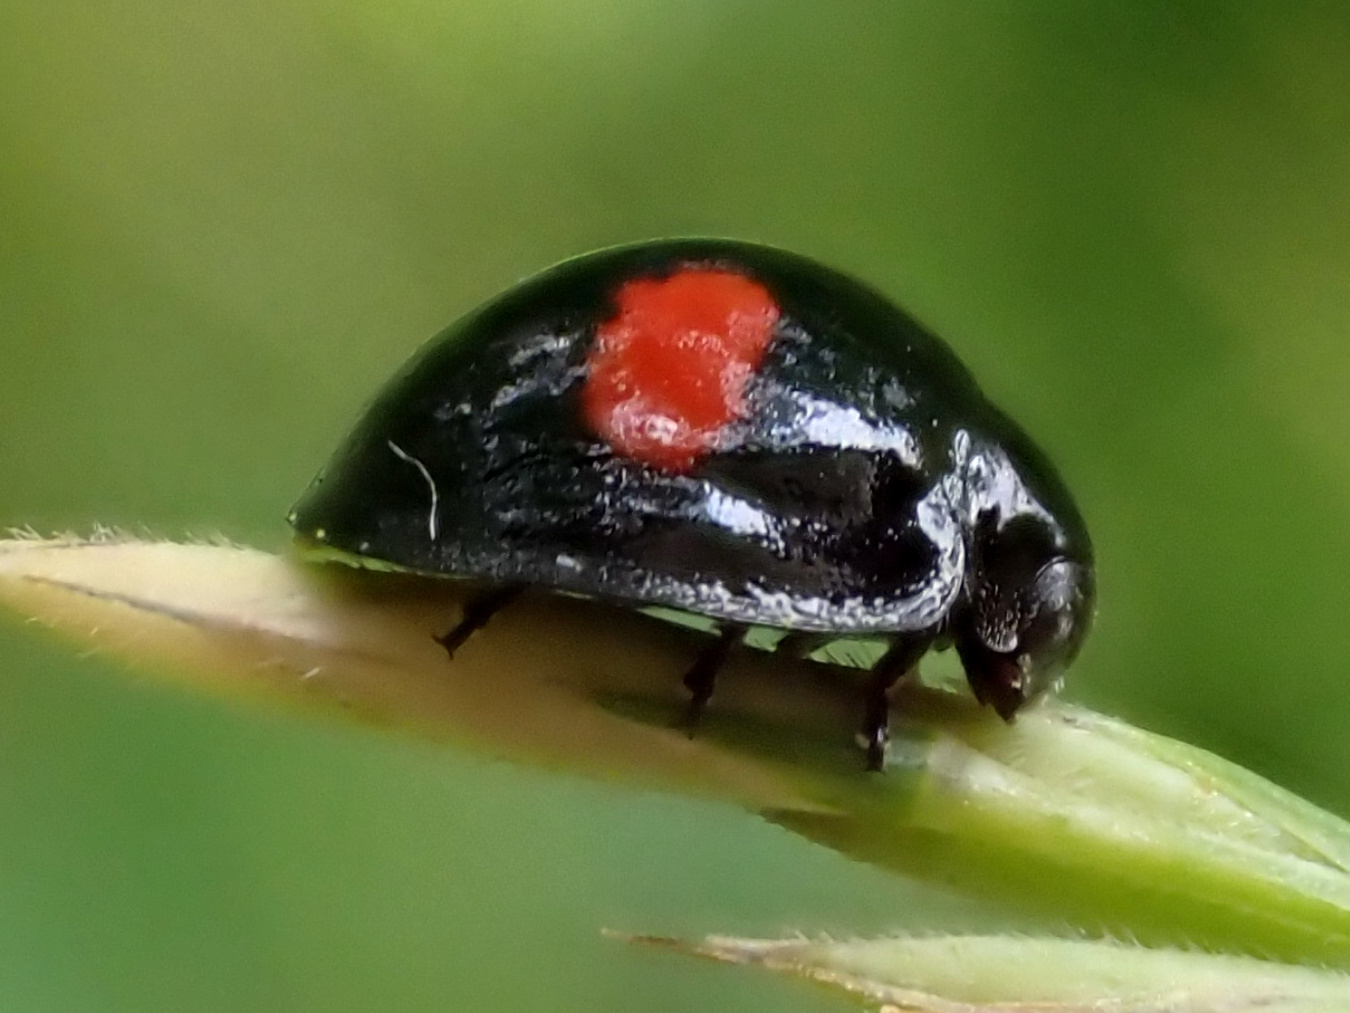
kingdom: Animalia
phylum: Arthropoda
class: Insecta
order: Coleoptera
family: Coccinellidae
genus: Chilocorus
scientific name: Chilocorus renipustulatus
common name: Kidney-spot ladybird
